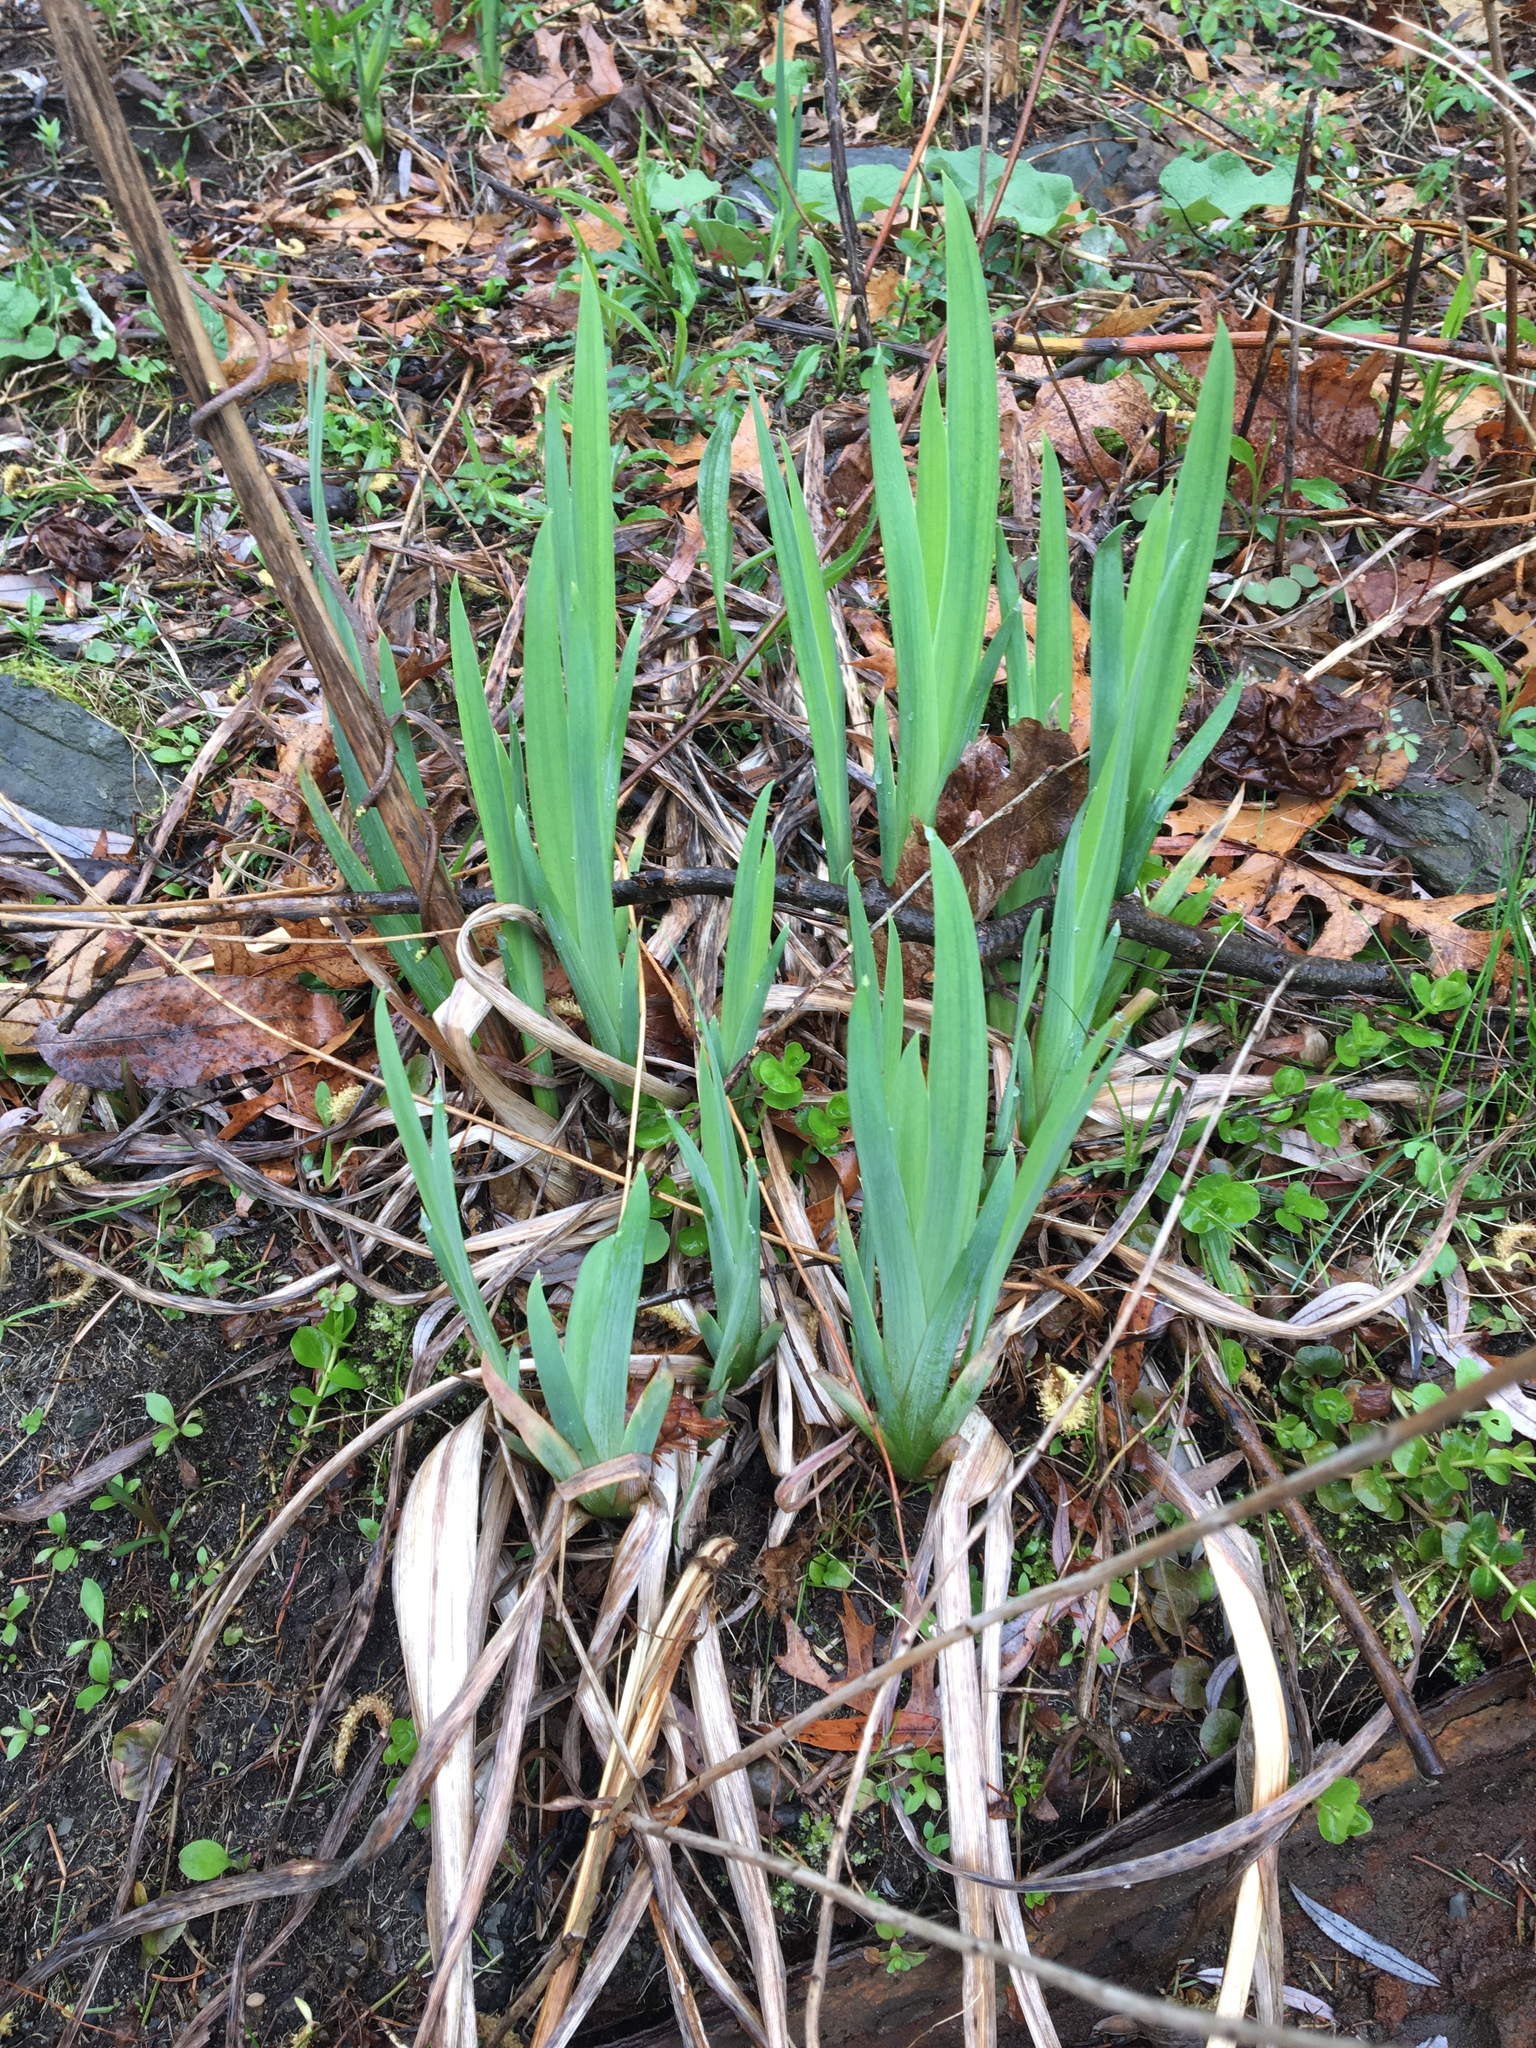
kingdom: Plantae
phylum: Tracheophyta
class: Liliopsida
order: Asparagales
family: Iridaceae
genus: Iris
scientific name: Iris pseudacorus
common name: Yellow flag
